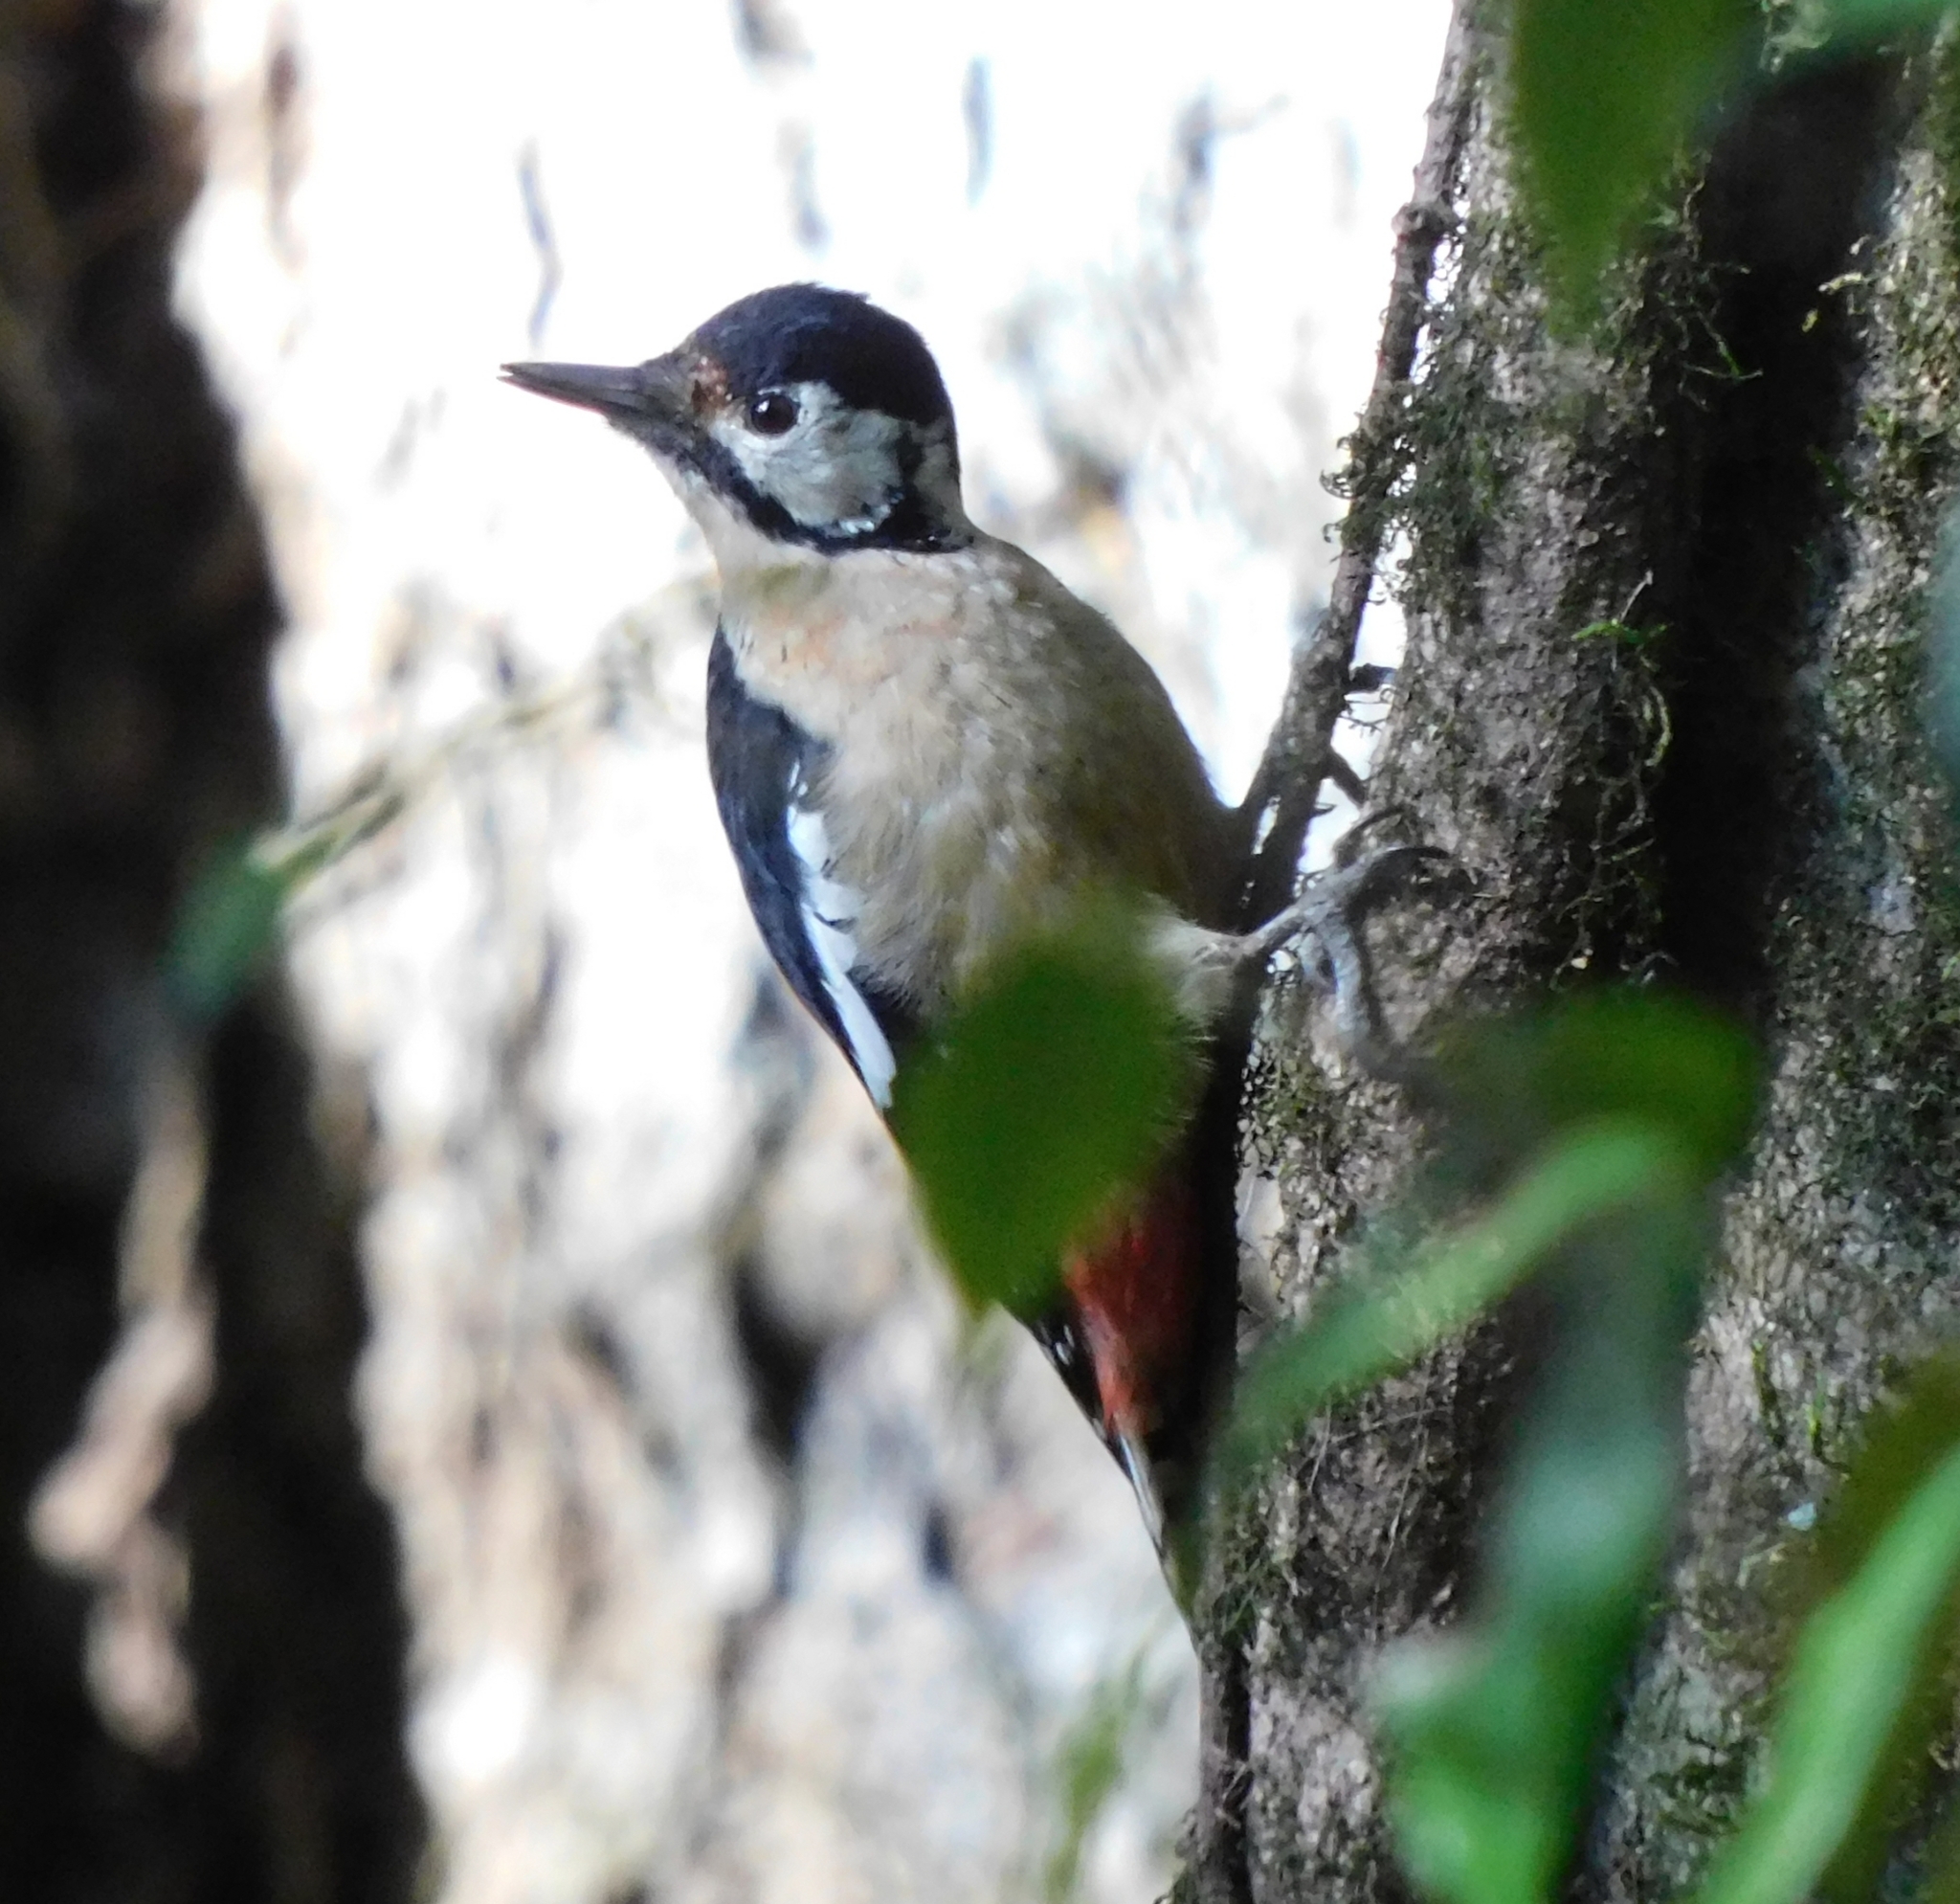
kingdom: Animalia
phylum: Chordata
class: Aves
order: Piciformes
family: Picidae
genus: Dendrocopos
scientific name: Dendrocopos himalayensis
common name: Himalayan woodpecker
